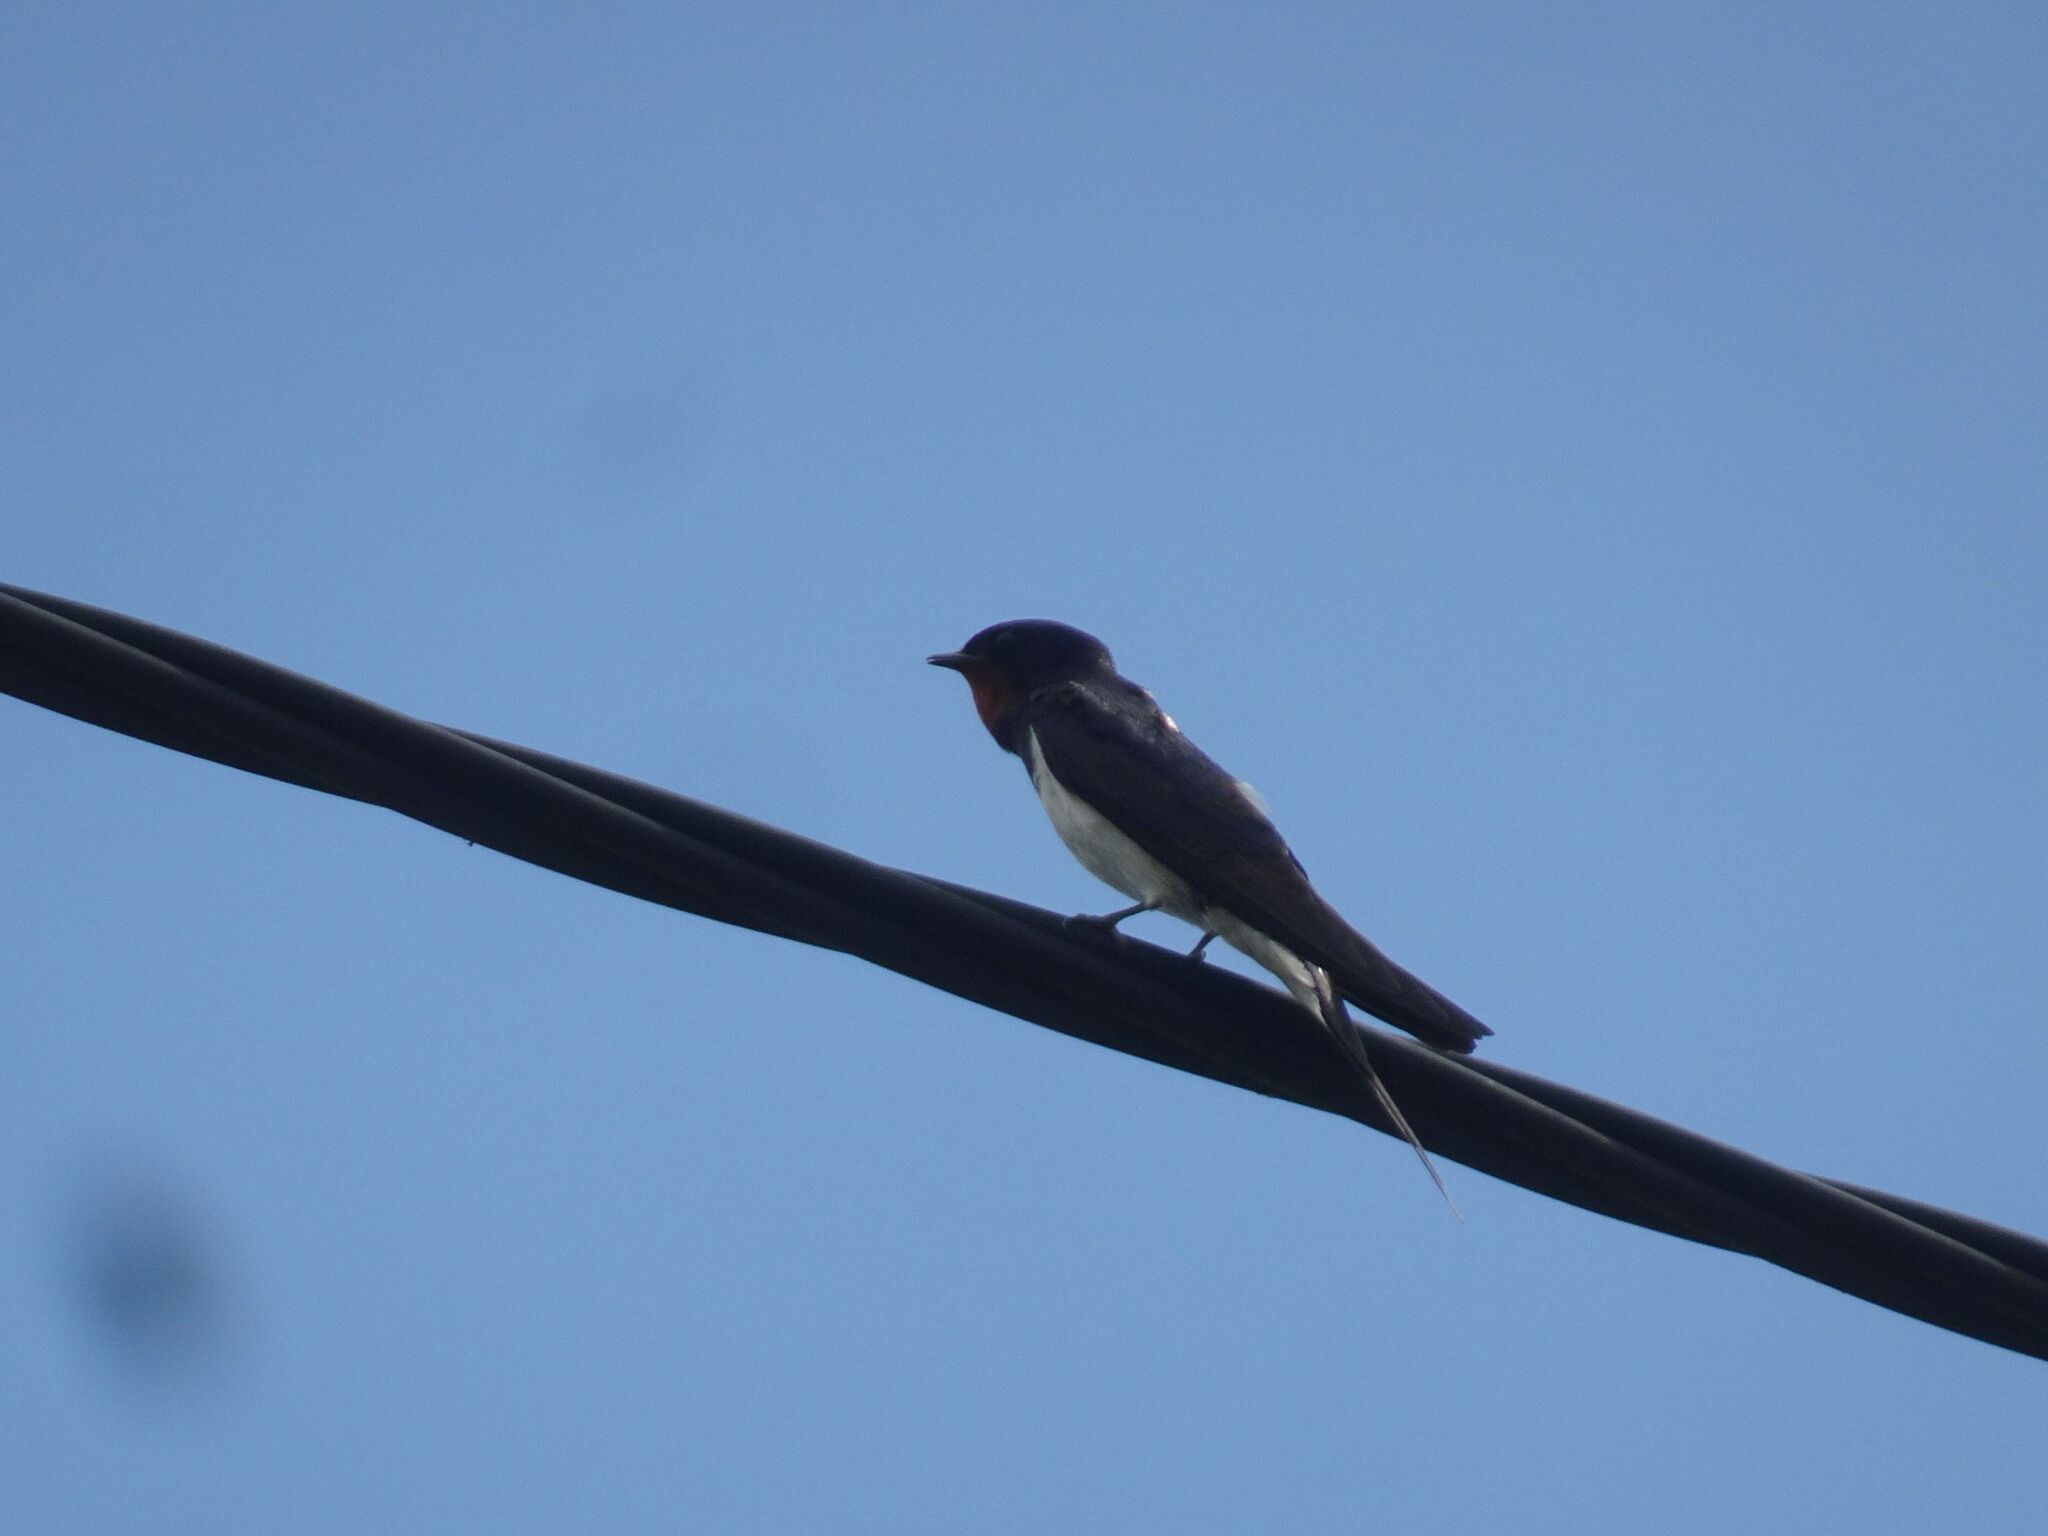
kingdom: Animalia
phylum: Chordata
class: Aves
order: Passeriformes
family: Hirundinidae
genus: Hirundo
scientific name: Hirundo rustica
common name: Barn swallow
